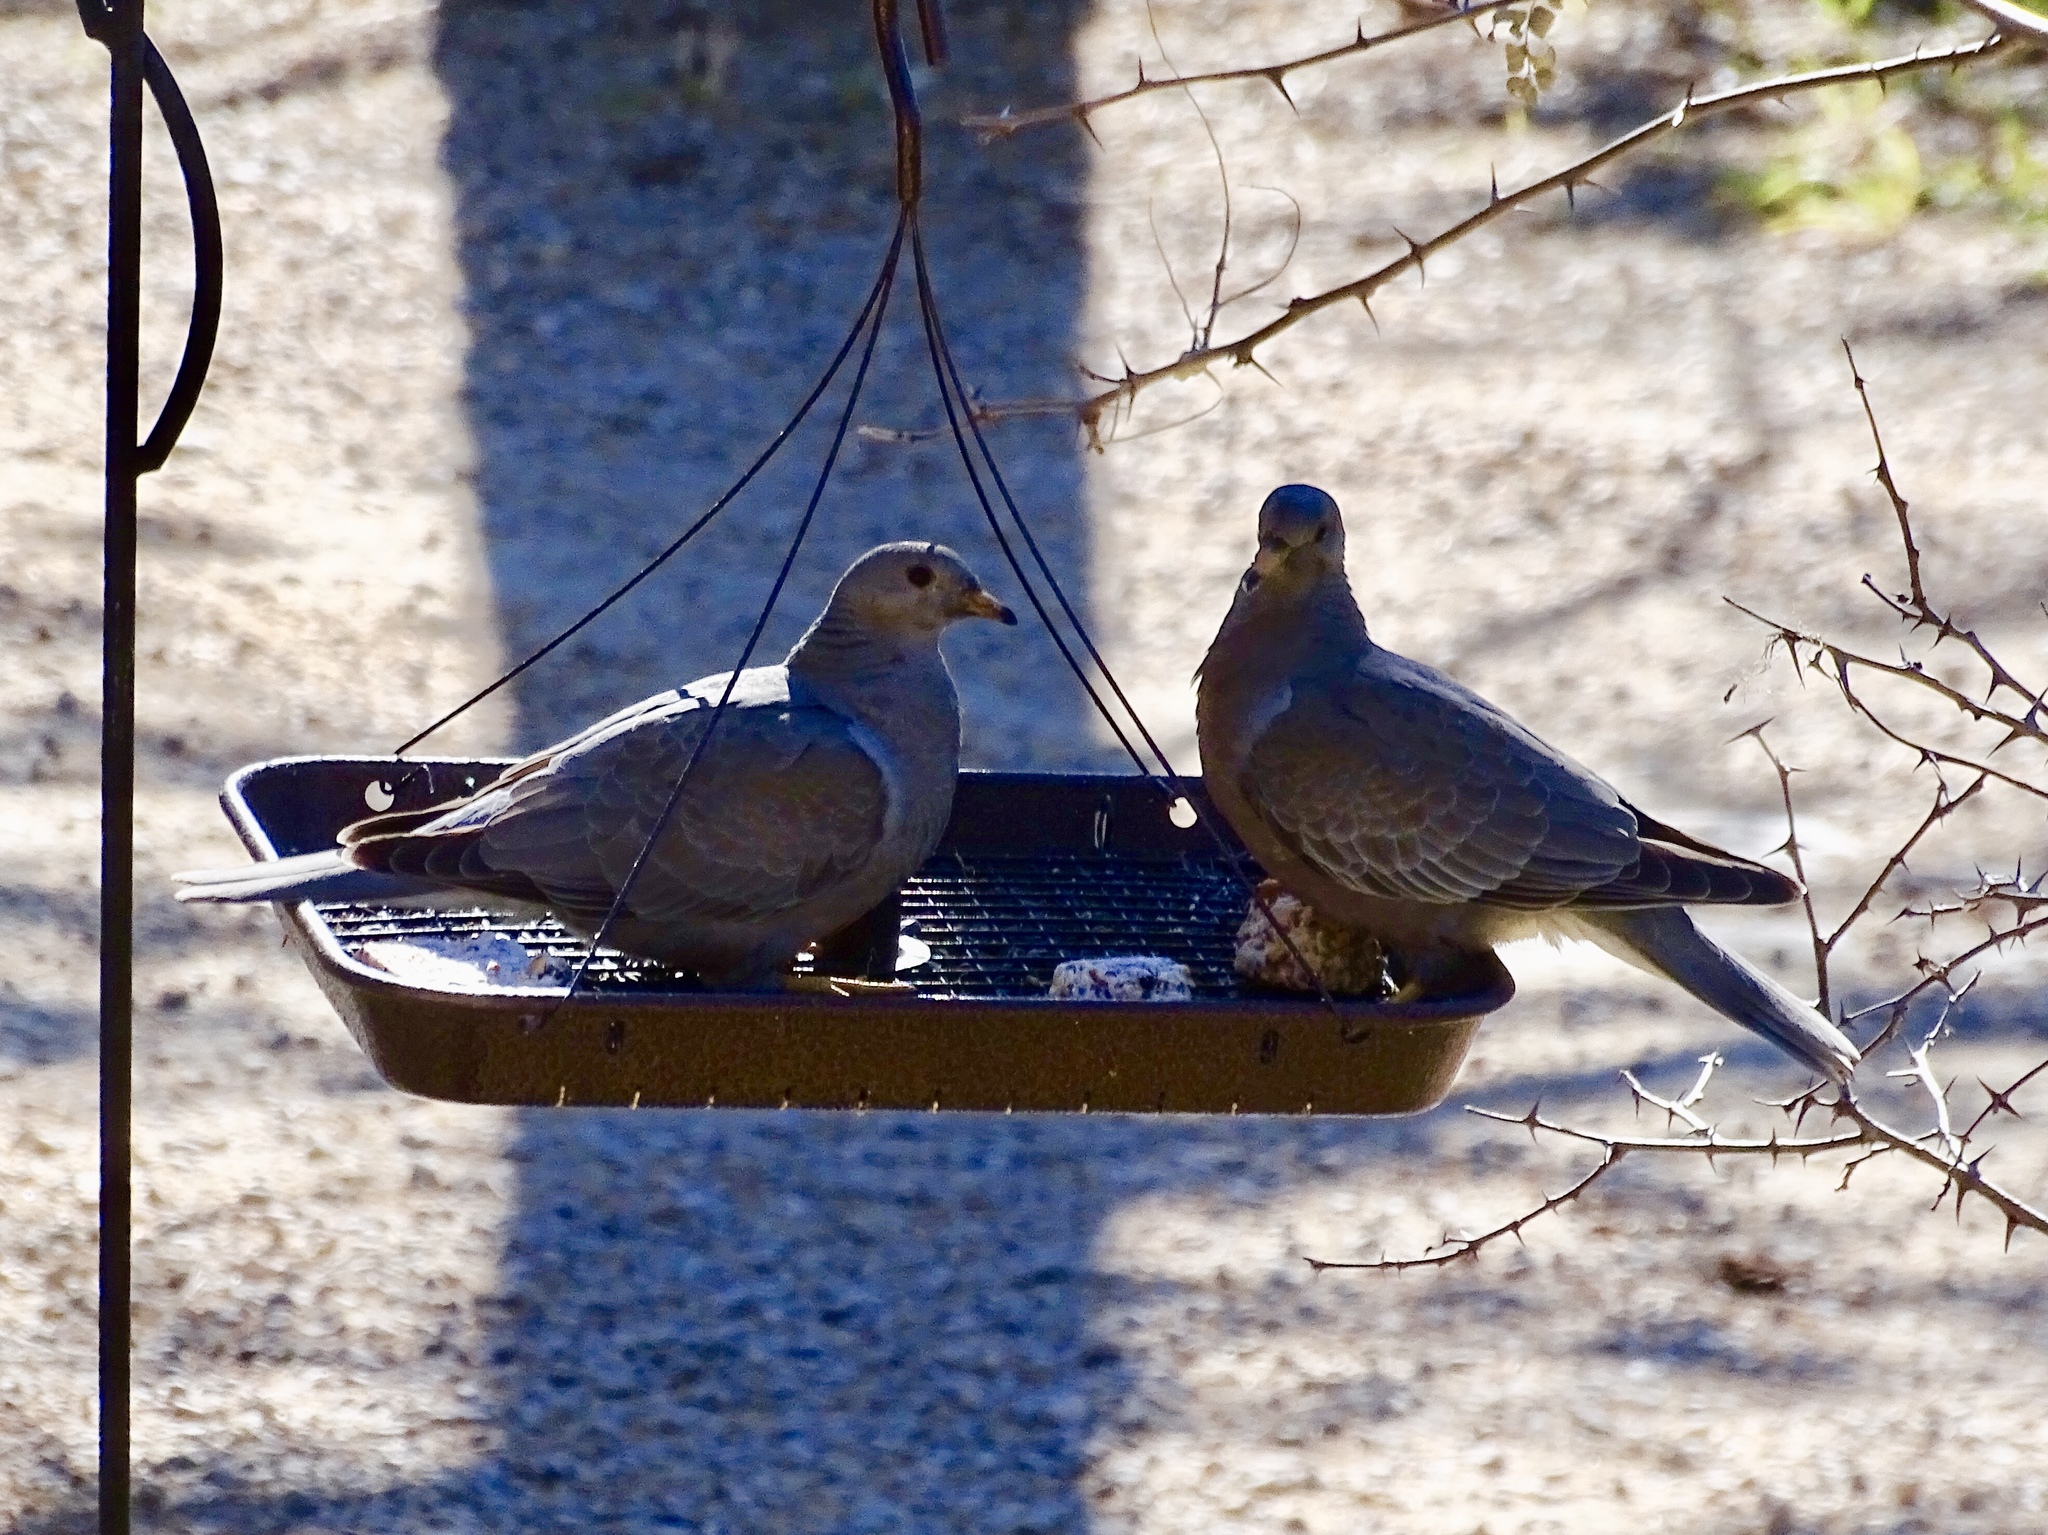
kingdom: Animalia
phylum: Chordata
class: Aves
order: Columbiformes
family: Columbidae
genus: Patagioenas
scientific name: Patagioenas fasciata
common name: Band-tailed pigeon
